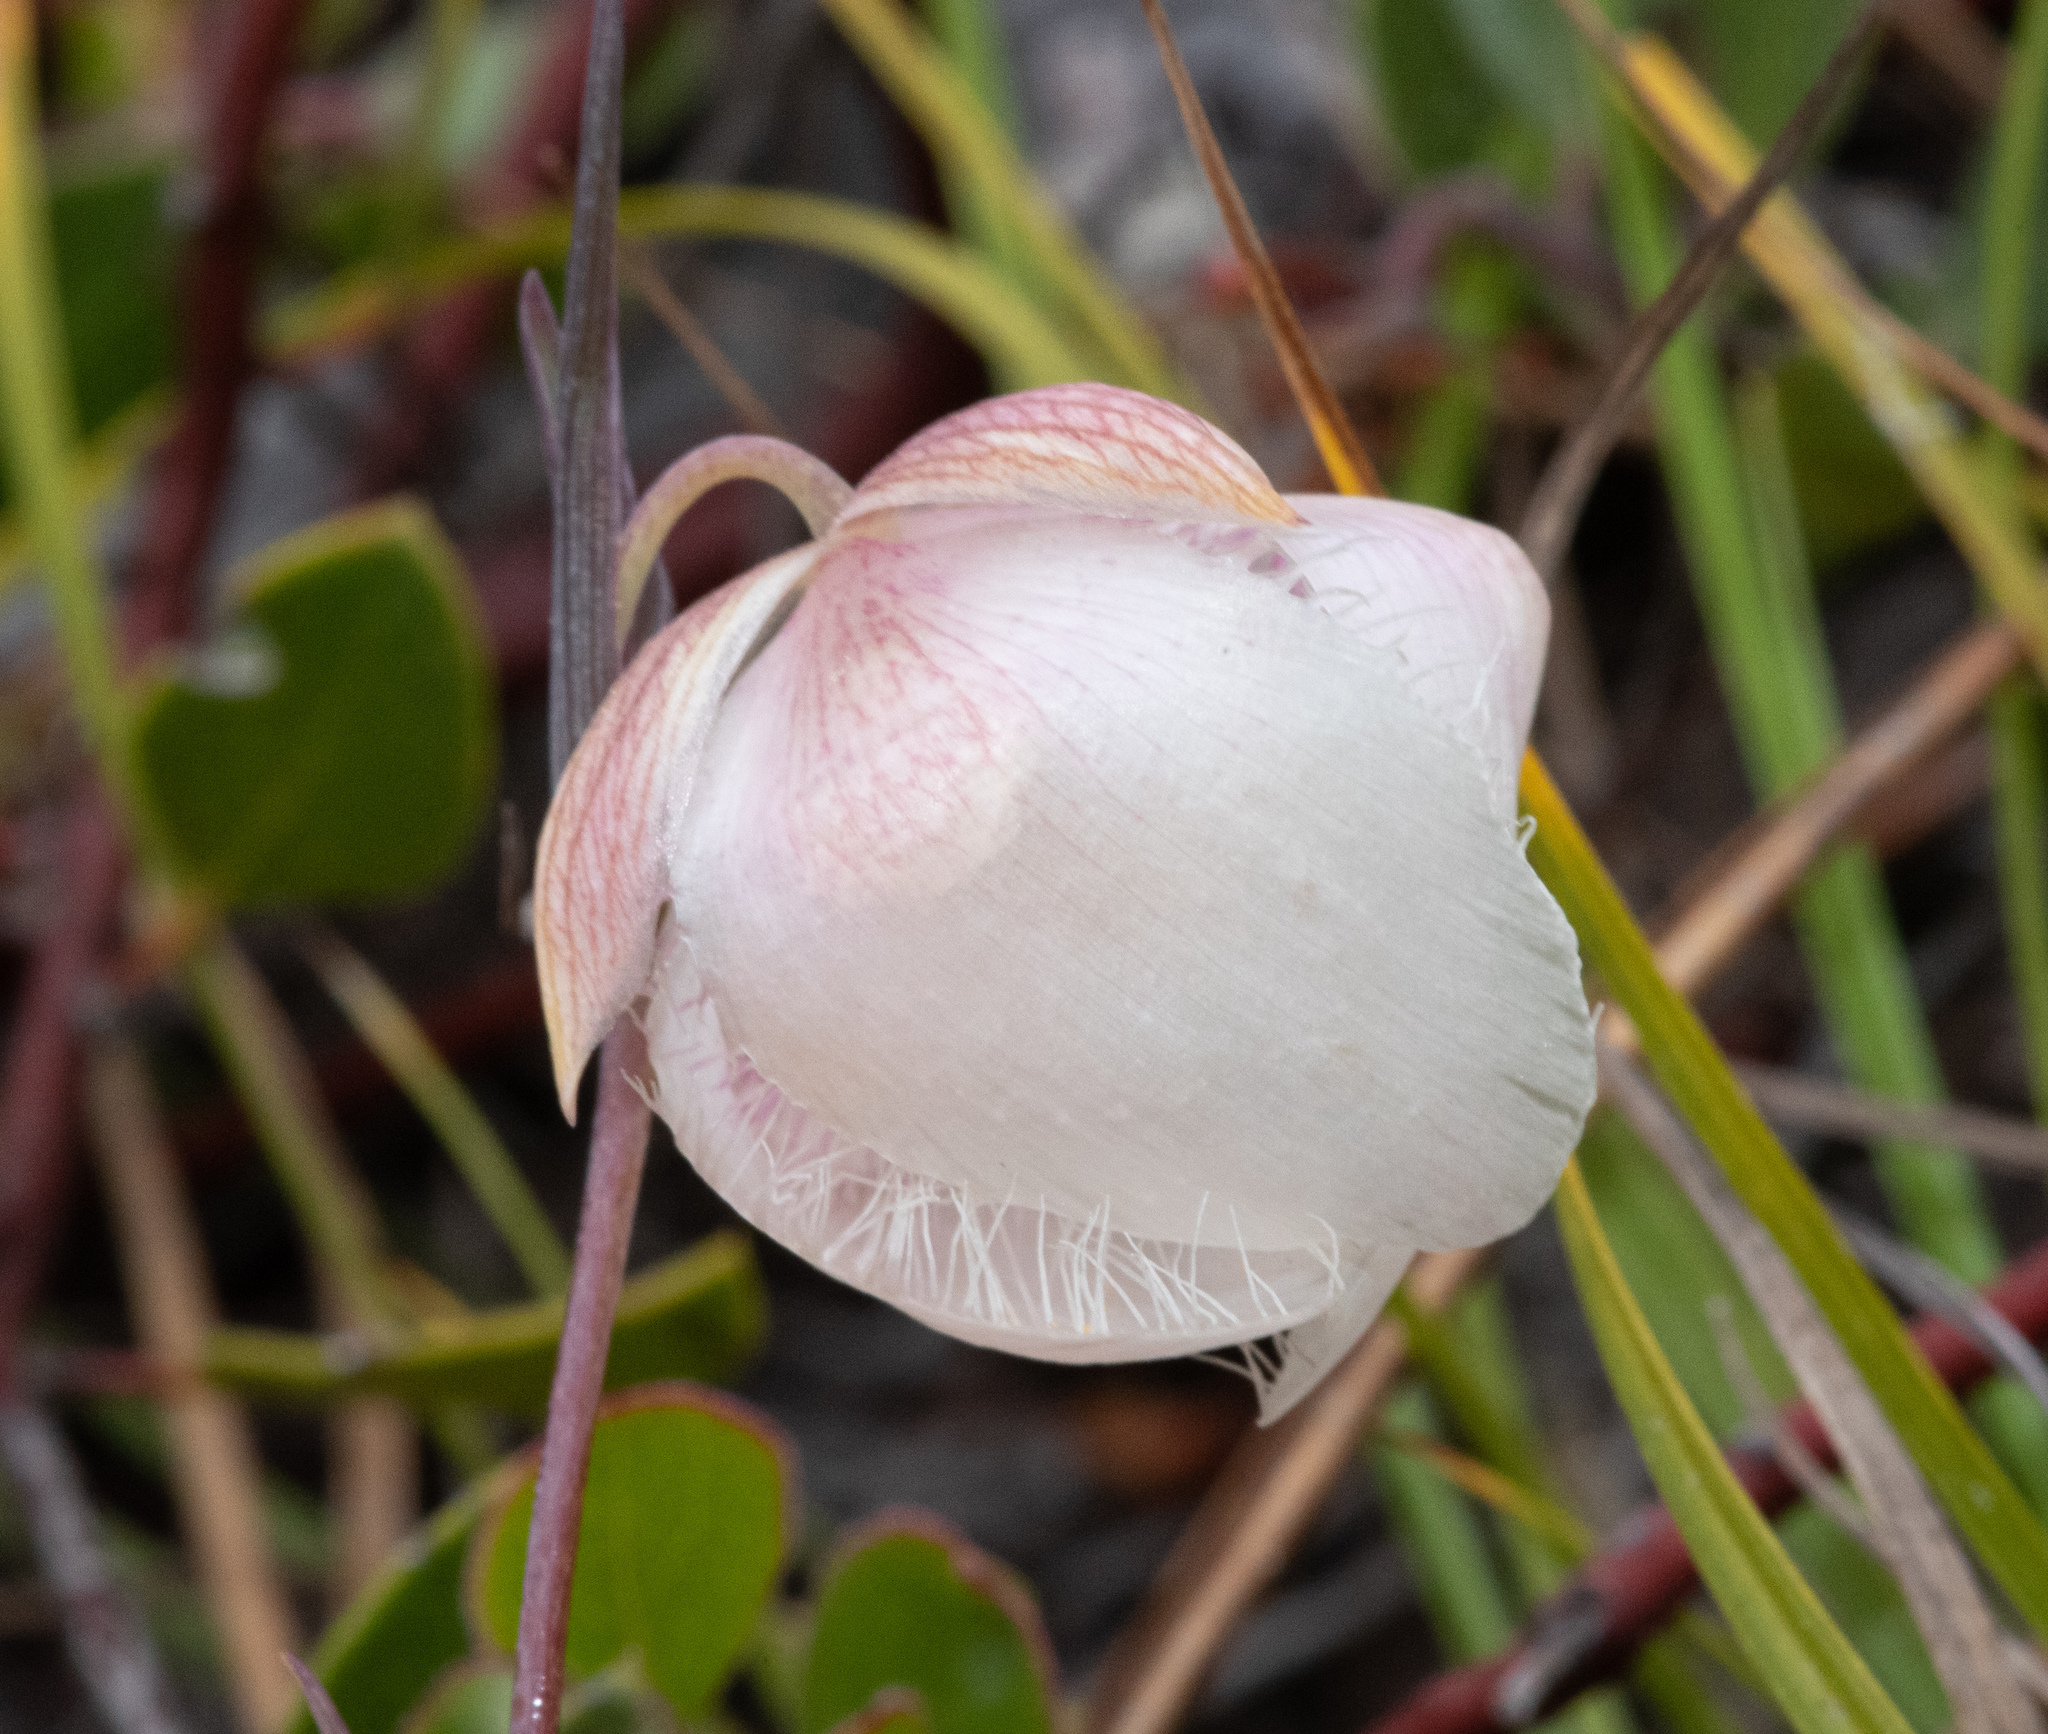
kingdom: Plantae
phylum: Tracheophyta
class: Liliopsida
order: Liliales
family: Liliaceae
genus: Calochortus
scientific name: Calochortus albus
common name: Fairy-lantern
